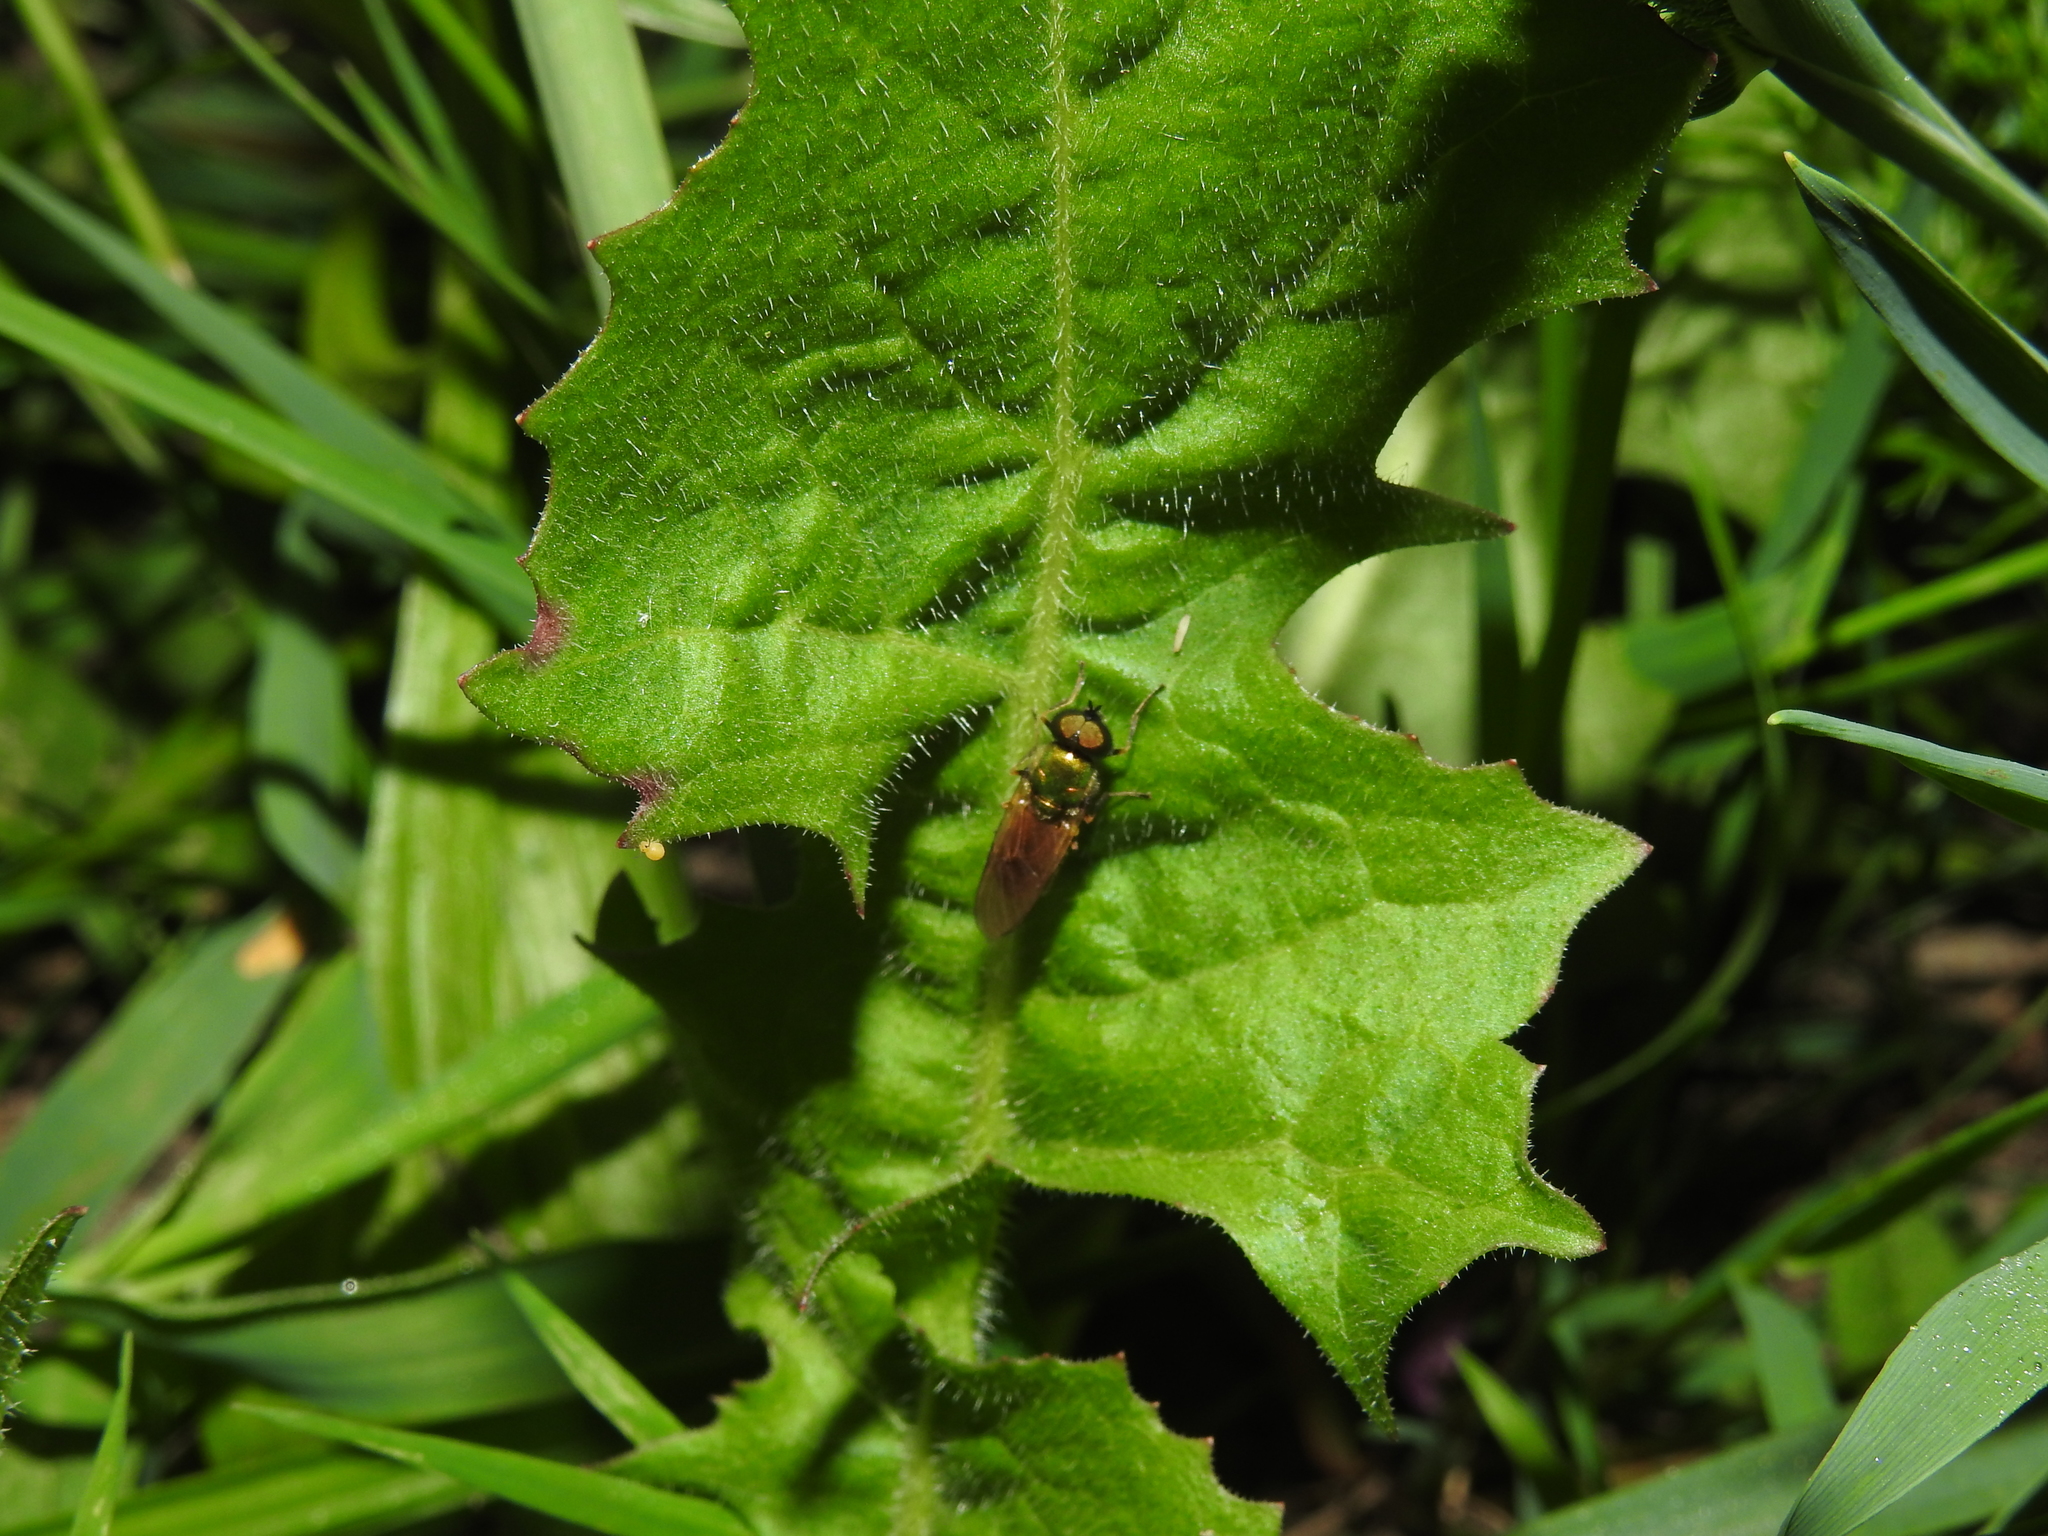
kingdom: Animalia
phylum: Arthropoda
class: Insecta
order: Diptera
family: Stratiomyidae
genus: Chloromyia
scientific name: Chloromyia formosa
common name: Soldier fly
